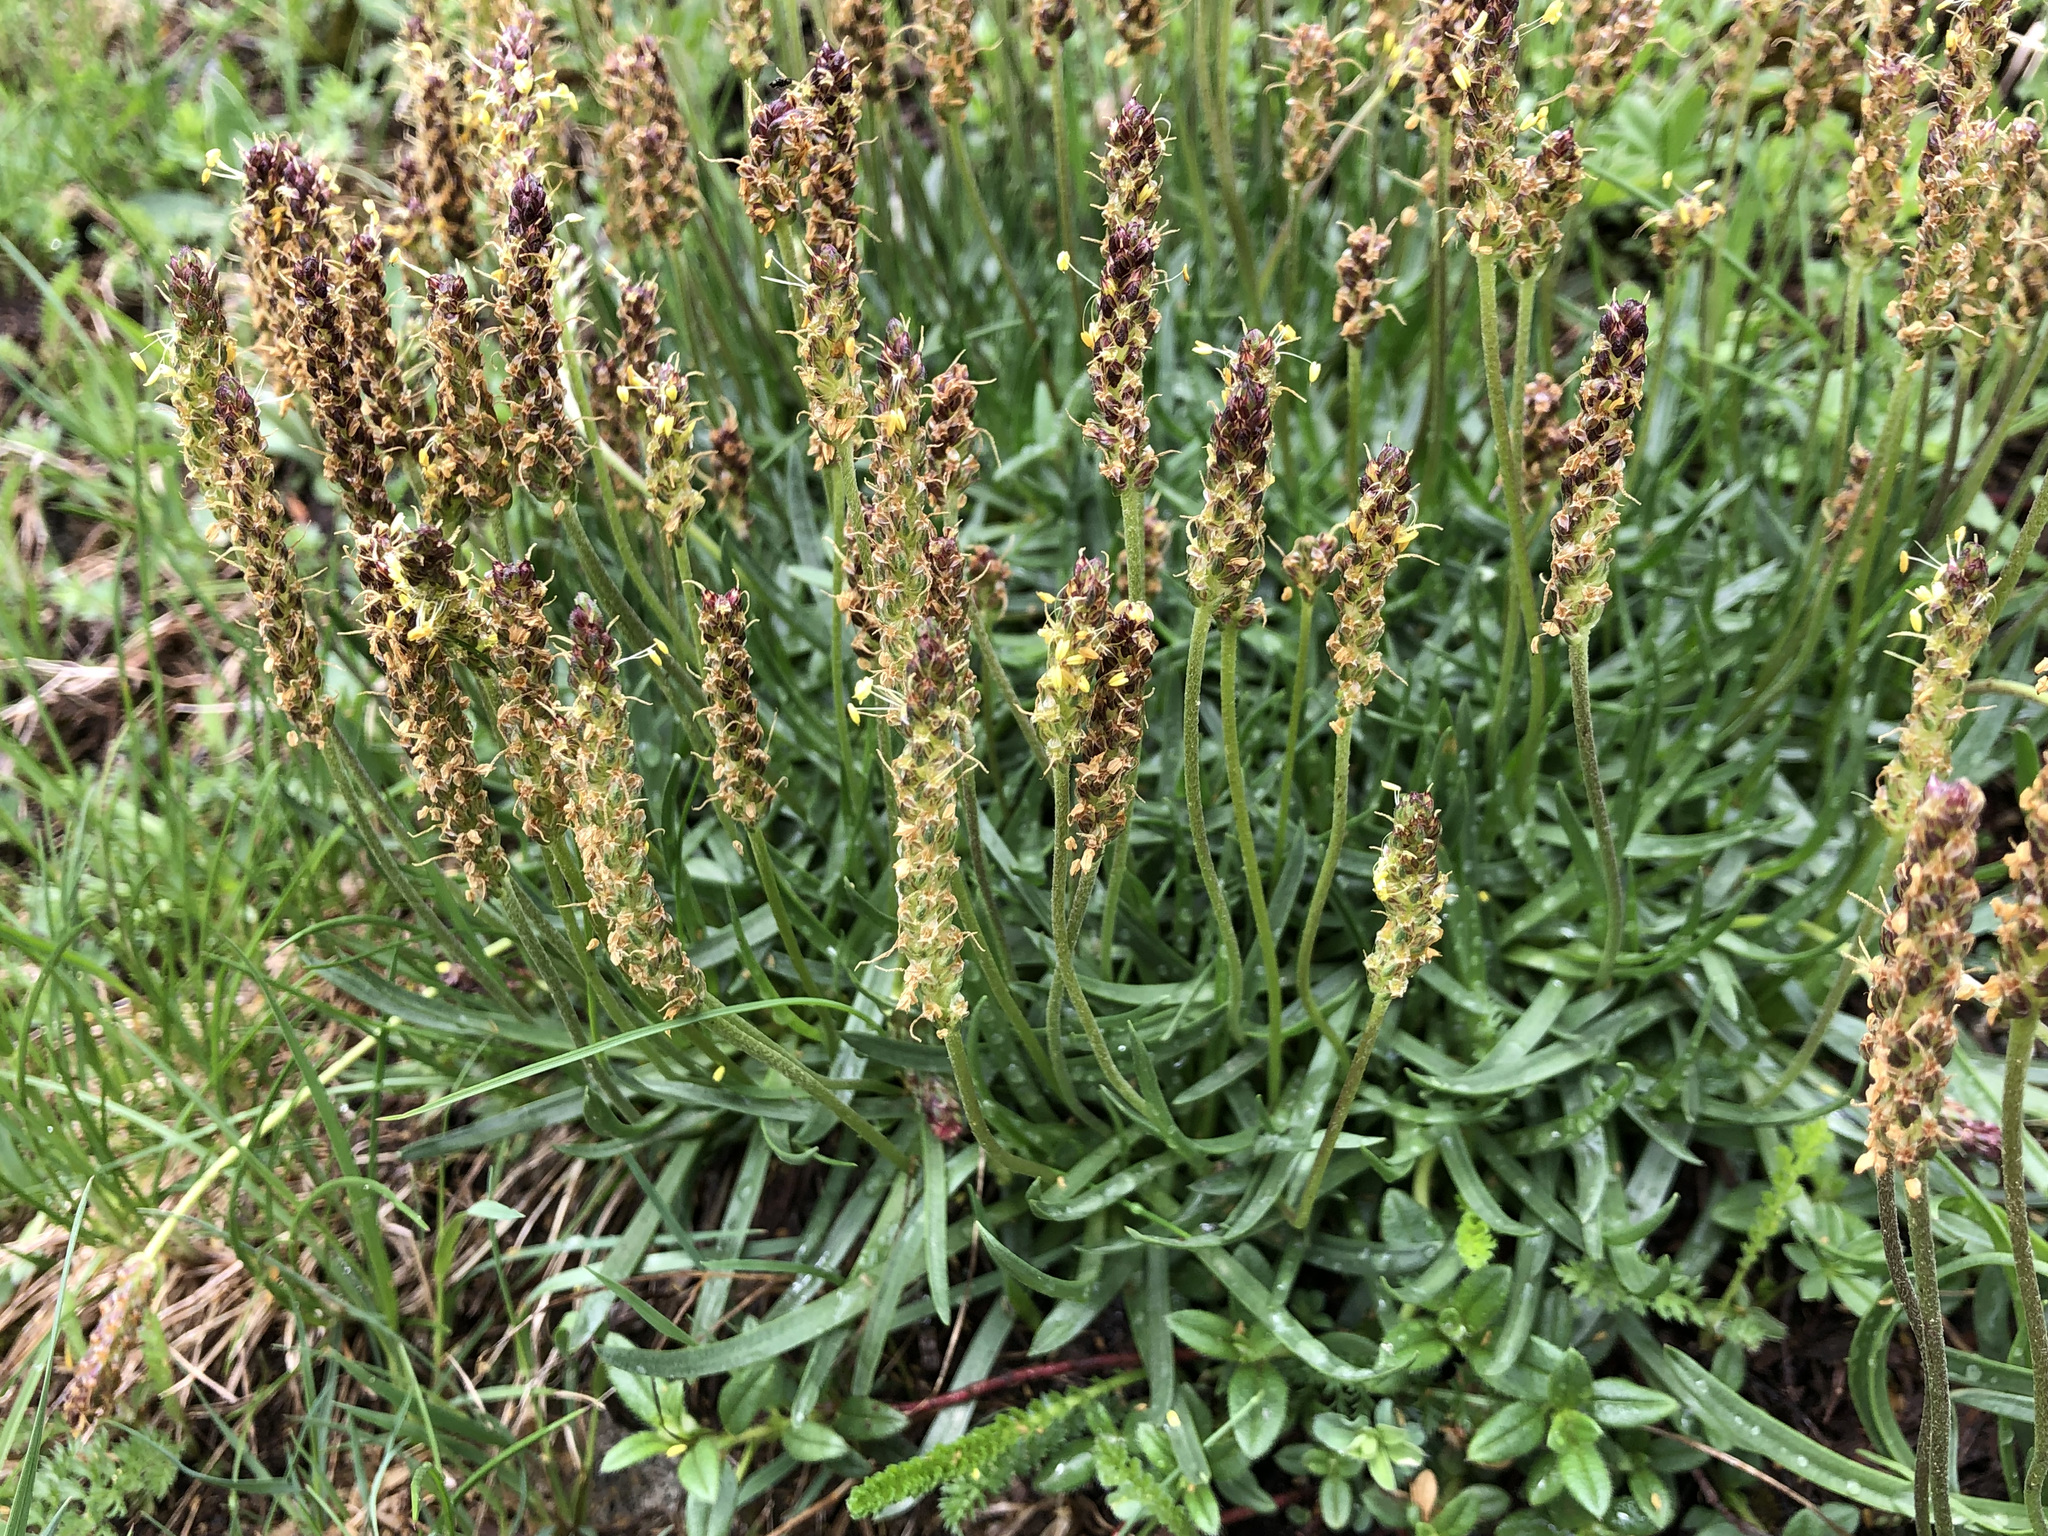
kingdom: Plantae
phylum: Tracheophyta
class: Magnoliopsida
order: Lamiales
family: Plantaginaceae
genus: Plantago
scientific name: Plantago alpina
